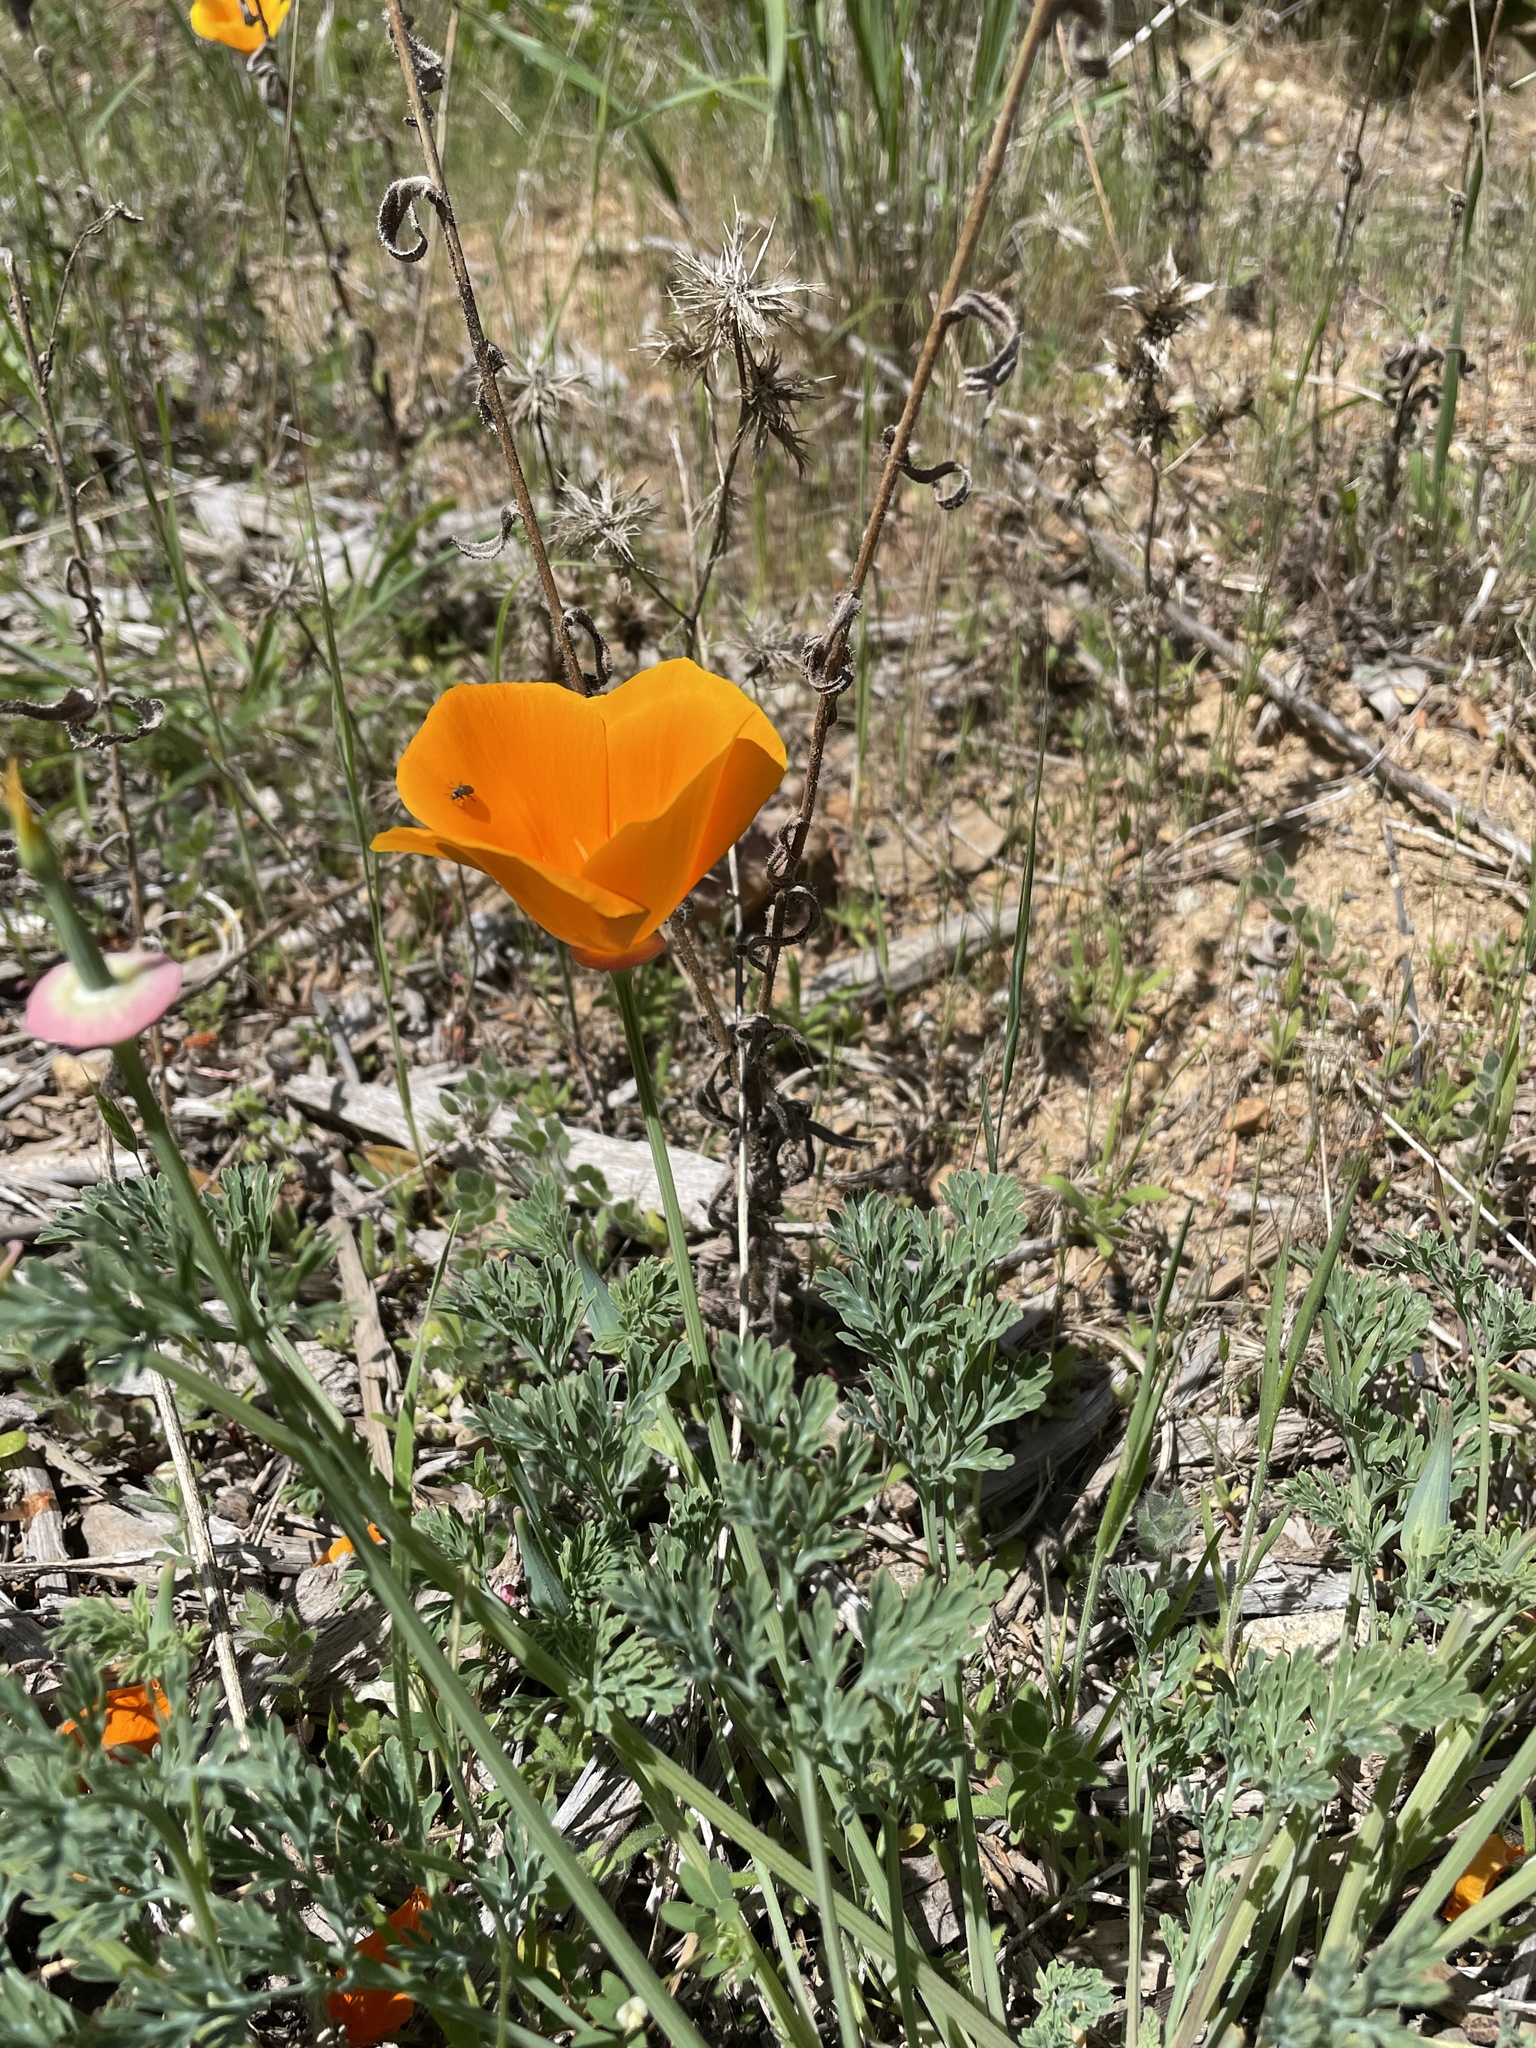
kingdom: Plantae
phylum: Tracheophyta
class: Magnoliopsida
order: Ranunculales
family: Papaveraceae
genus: Eschscholzia
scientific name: Eschscholzia californica
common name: California poppy
